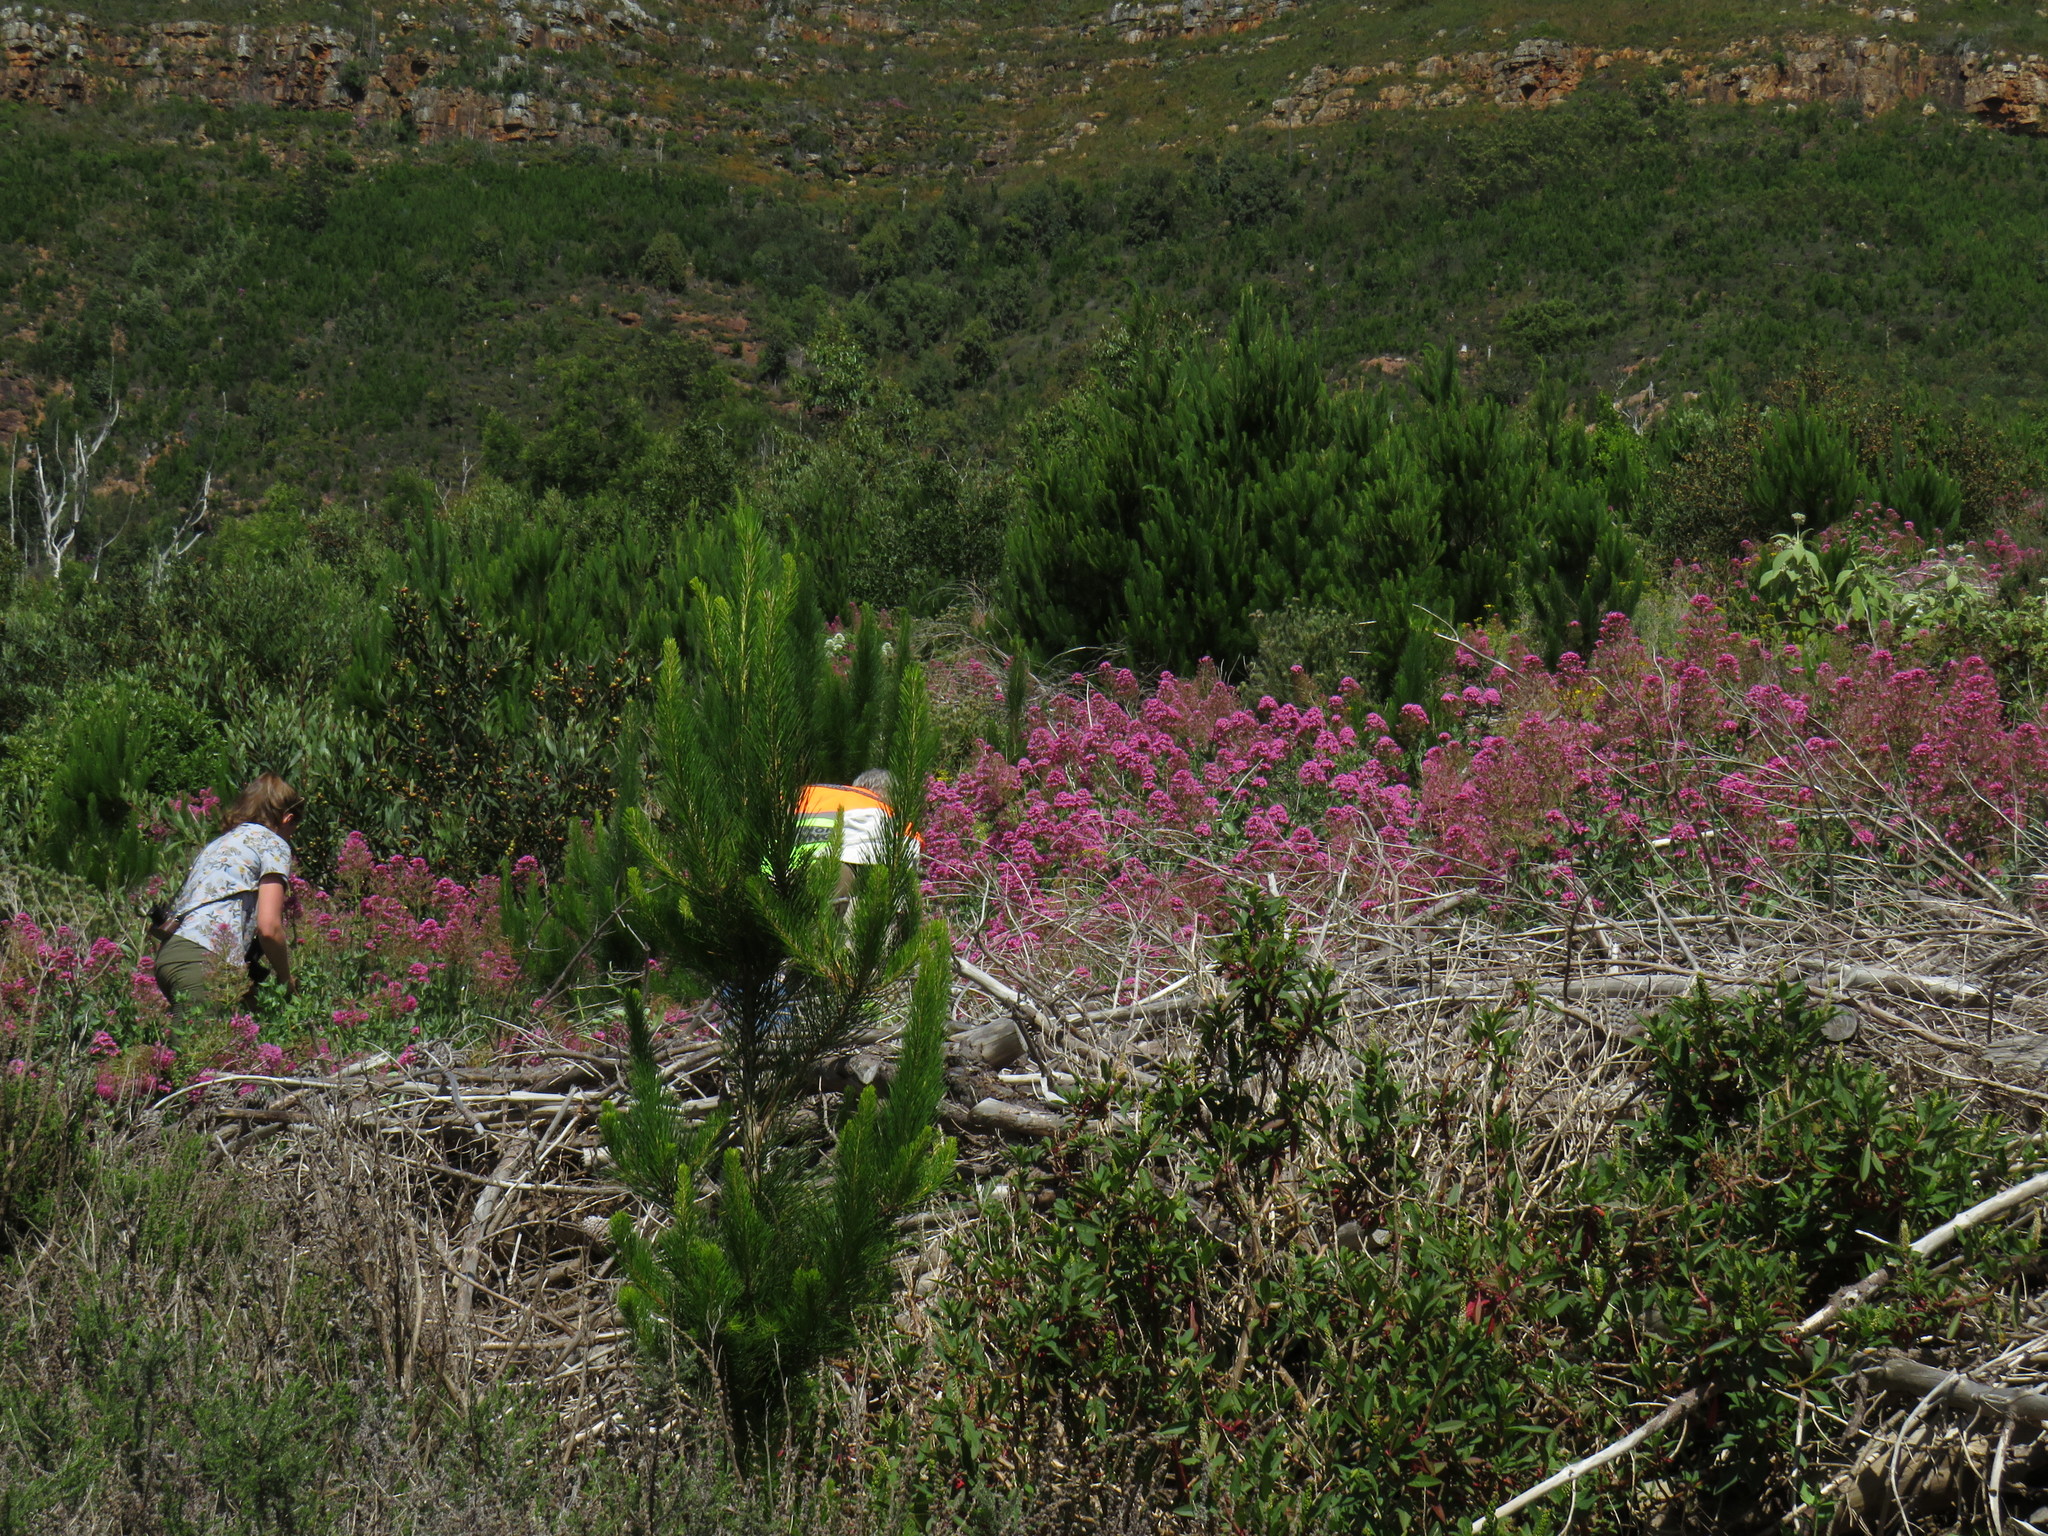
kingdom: Plantae
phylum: Tracheophyta
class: Pinopsida
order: Pinales
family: Pinaceae
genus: Pinus
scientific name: Pinus radiata
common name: Monterey pine
